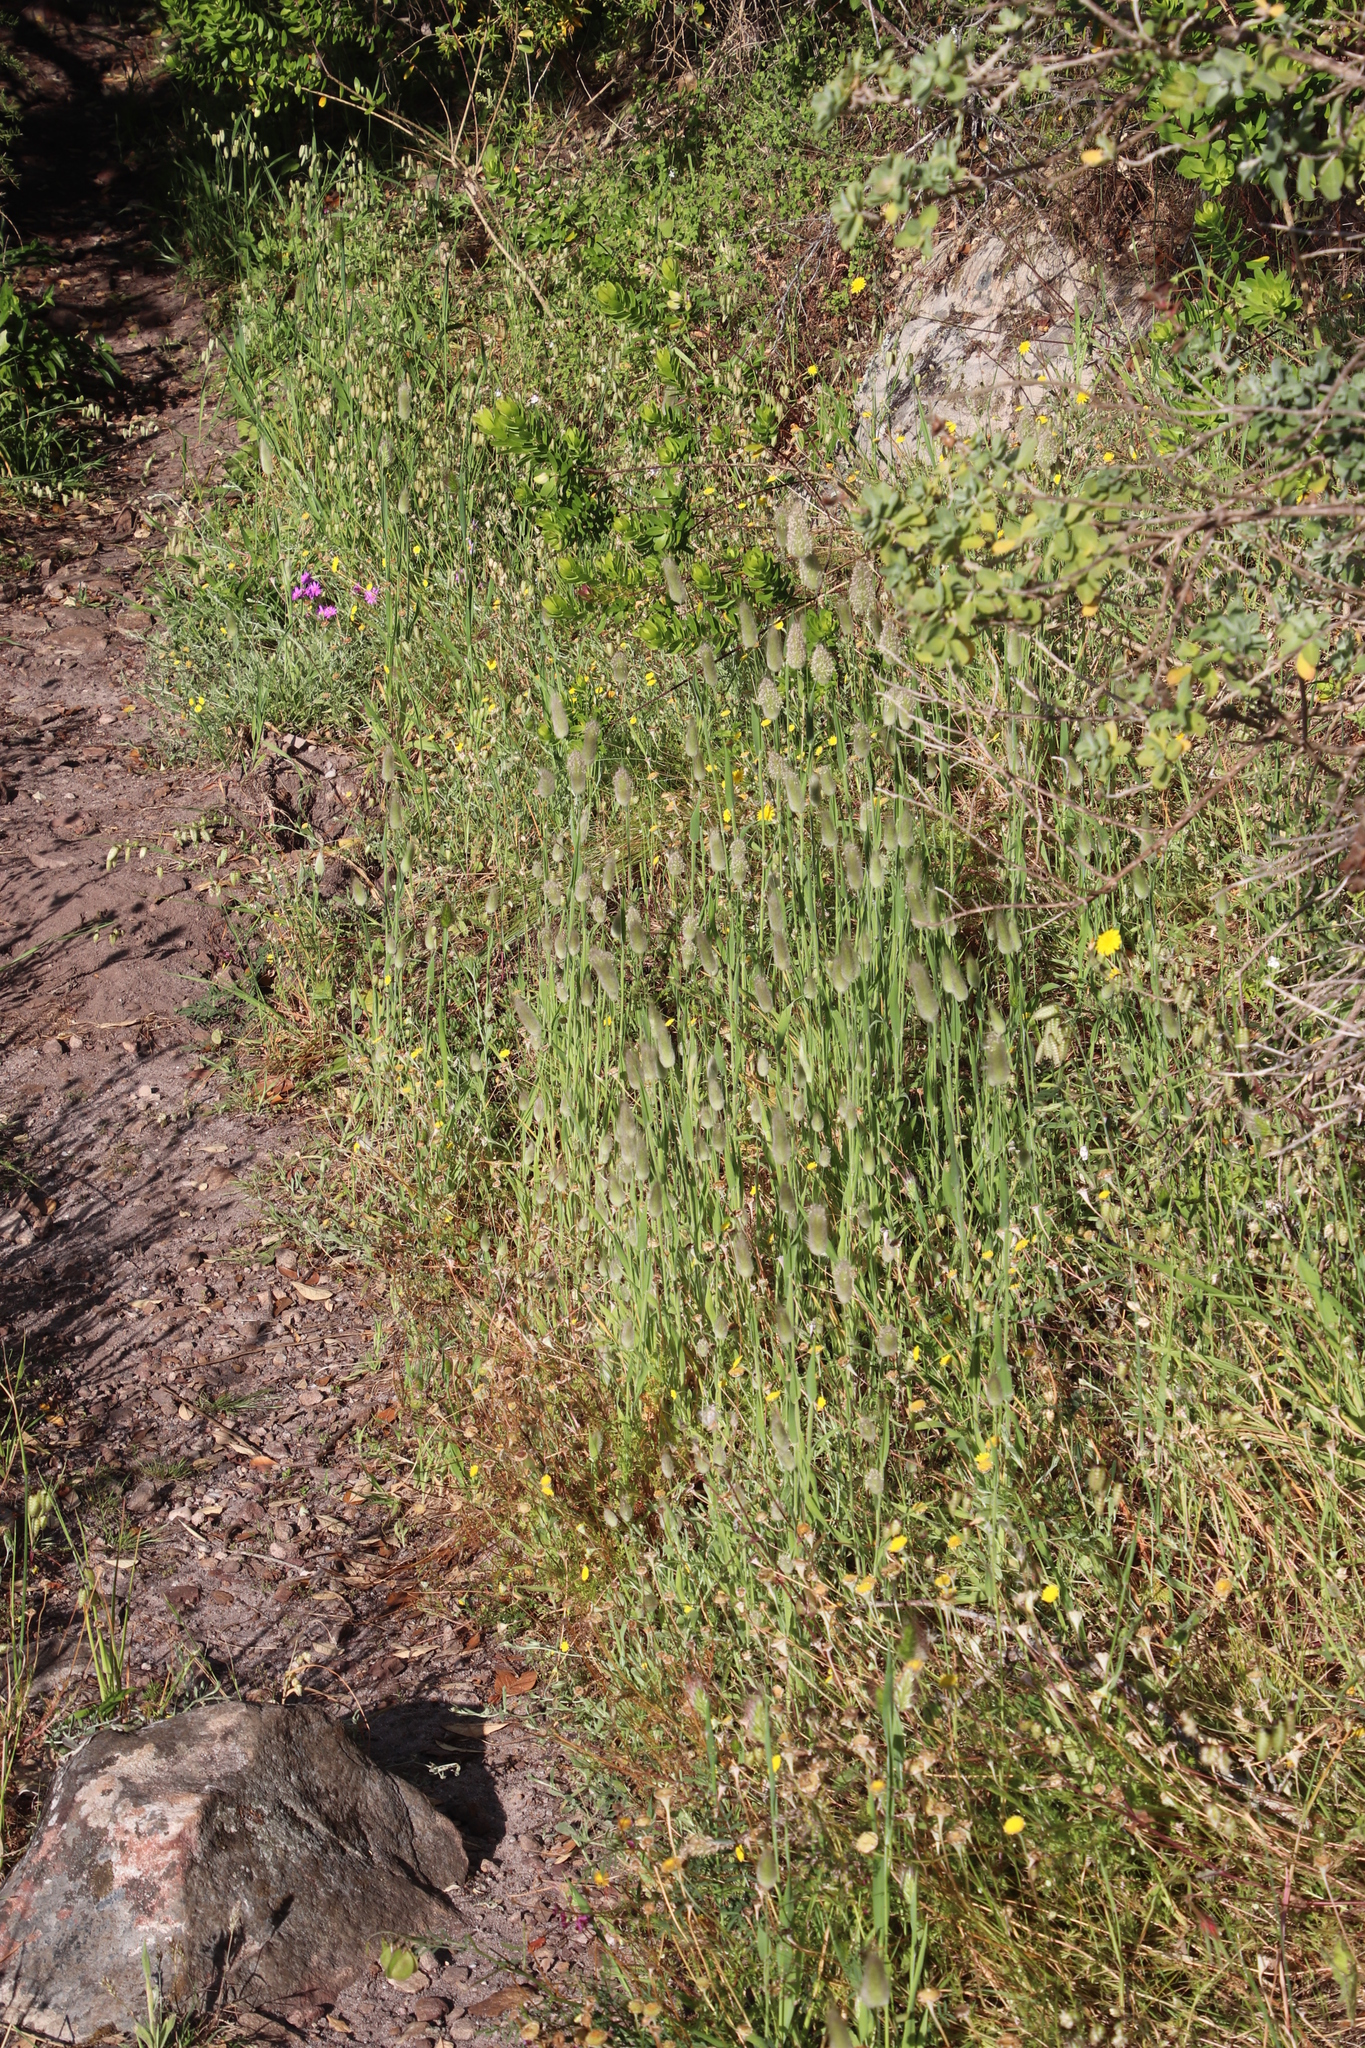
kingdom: Plantae
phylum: Tracheophyta
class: Liliopsida
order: Poales
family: Poaceae
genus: Briza
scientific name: Briza maxima
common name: Big quakinggrass
